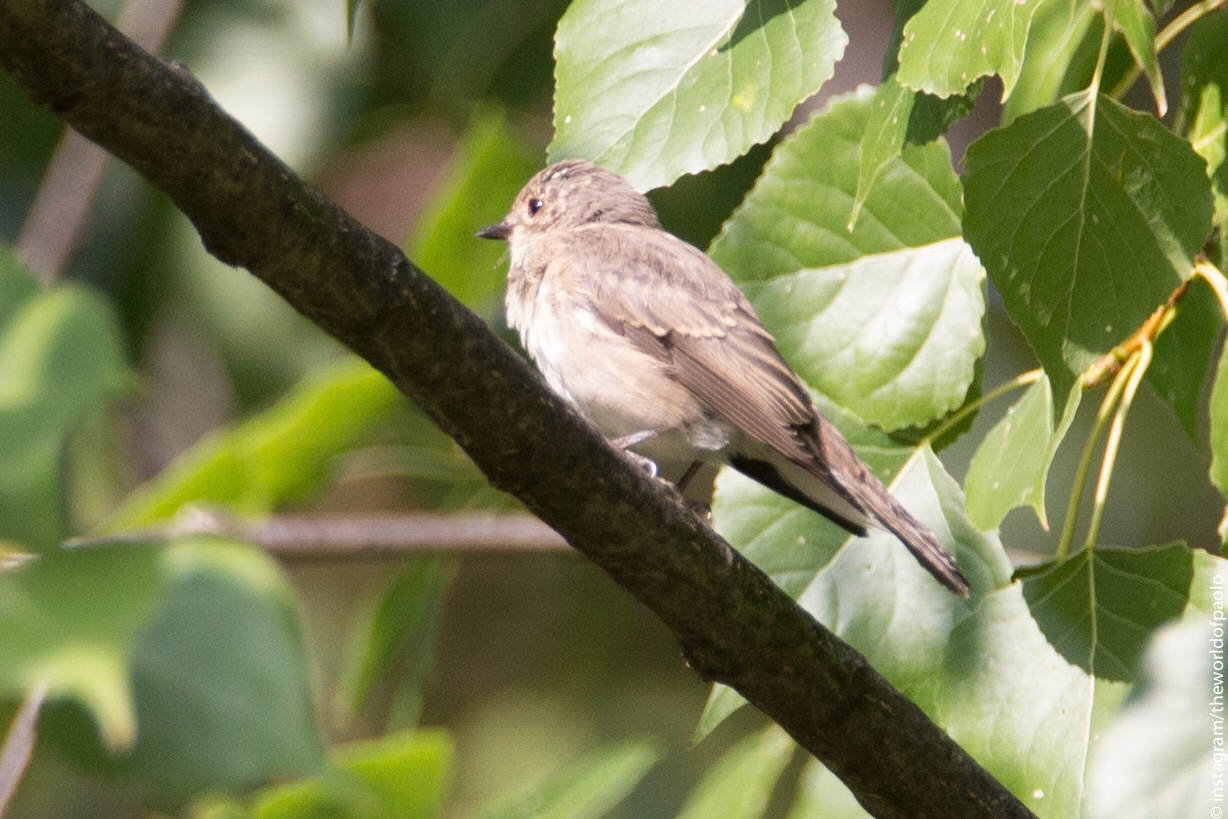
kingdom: Animalia
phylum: Chordata
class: Aves
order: Passeriformes
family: Muscicapidae
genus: Muscicapa
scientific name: Muscicapa striata
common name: Spotted flycatcher
